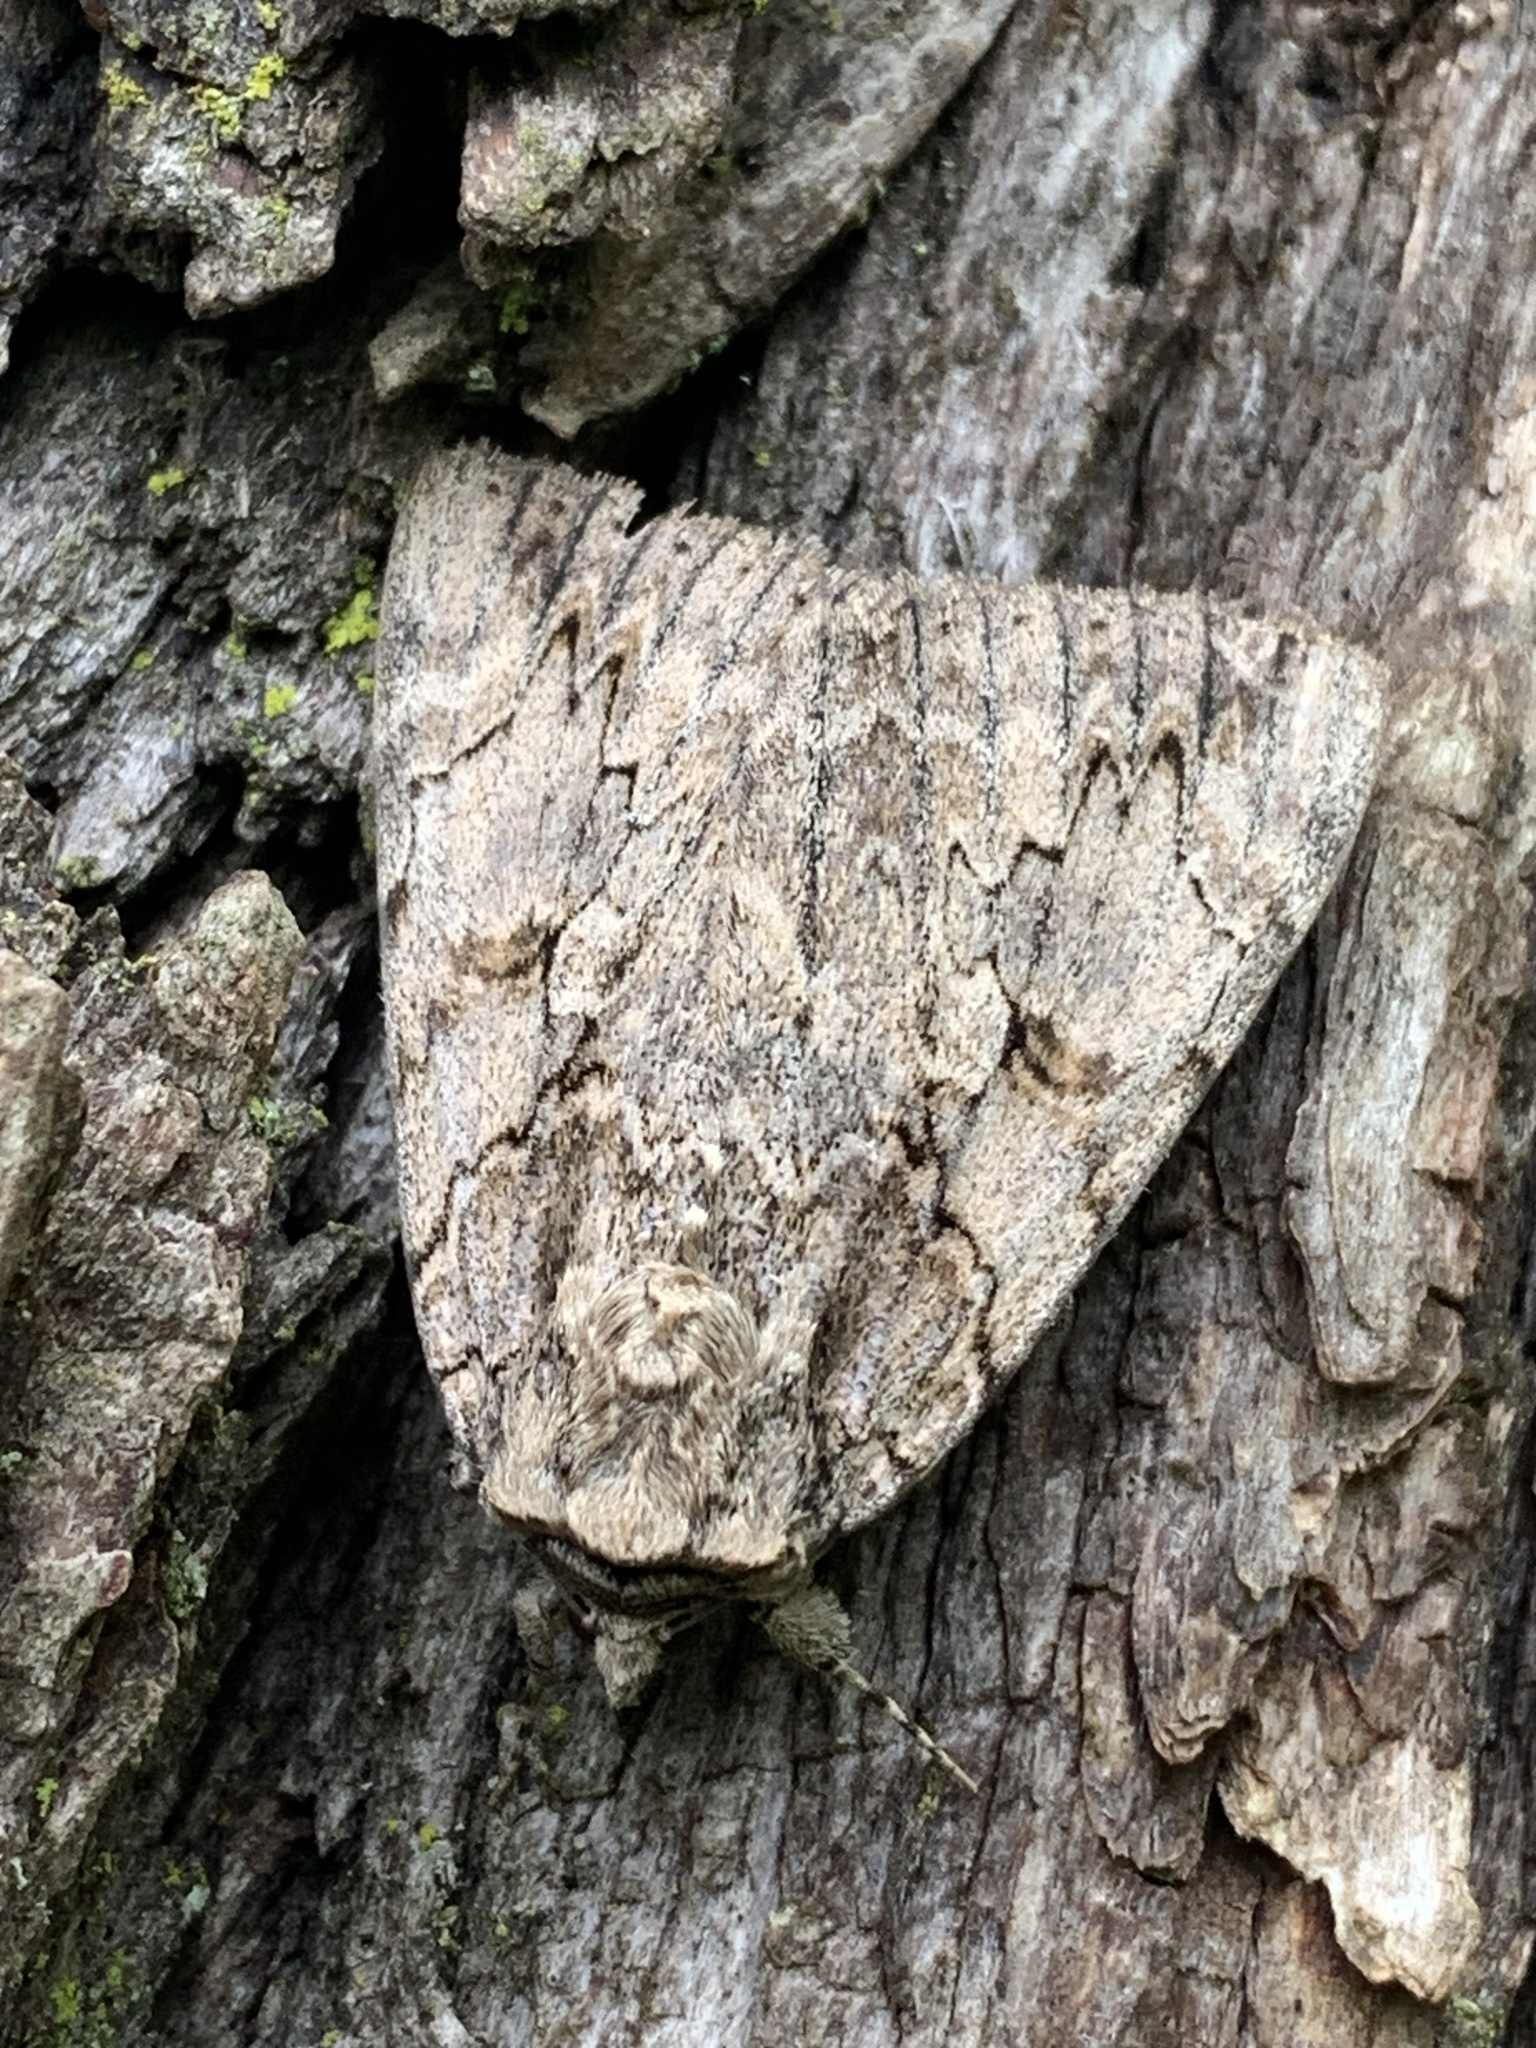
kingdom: Animalia
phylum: Arthropoda
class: Insecta
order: Lepidoptera
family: Erebidae
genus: Catocala
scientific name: Catocala amatrix
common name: Sweetheart underwing
